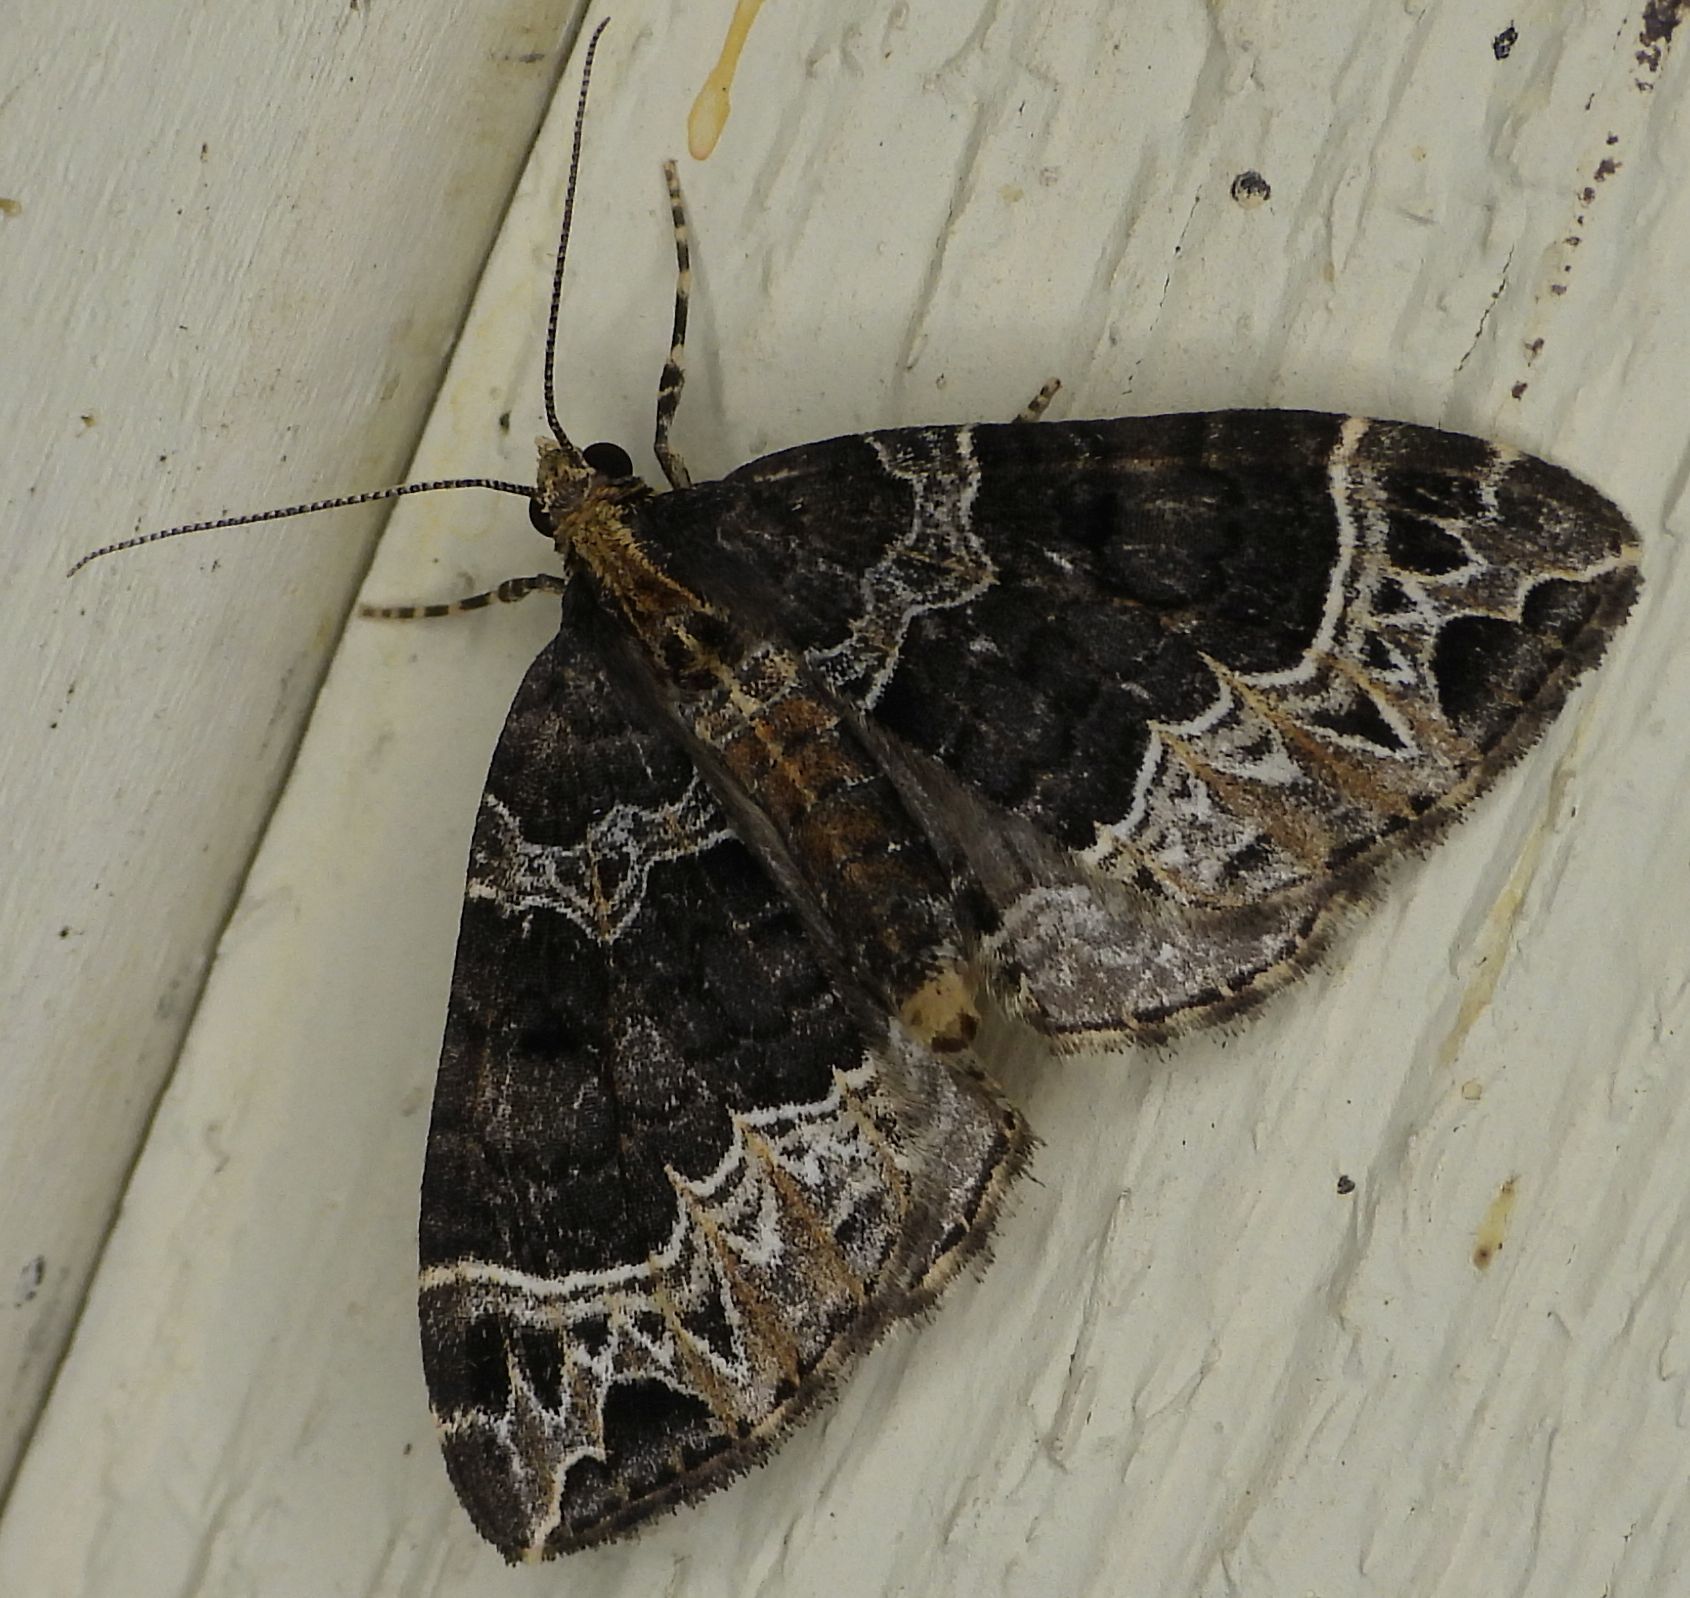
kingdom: Animalia
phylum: Arthropoda
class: Insecta
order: Lepidoptera
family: Geometridae
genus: Ecliptopera
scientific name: Ecliptopera silaceata
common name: Small phoenix
